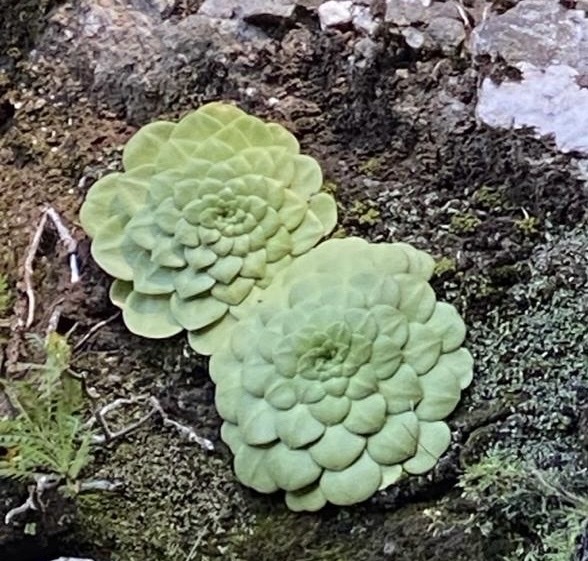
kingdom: Plantae
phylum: Tracheophyta
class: Magnoliopsida
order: Saxifragales
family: Crassulaceae
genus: Aeonium
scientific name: Aeonium glandulosum
